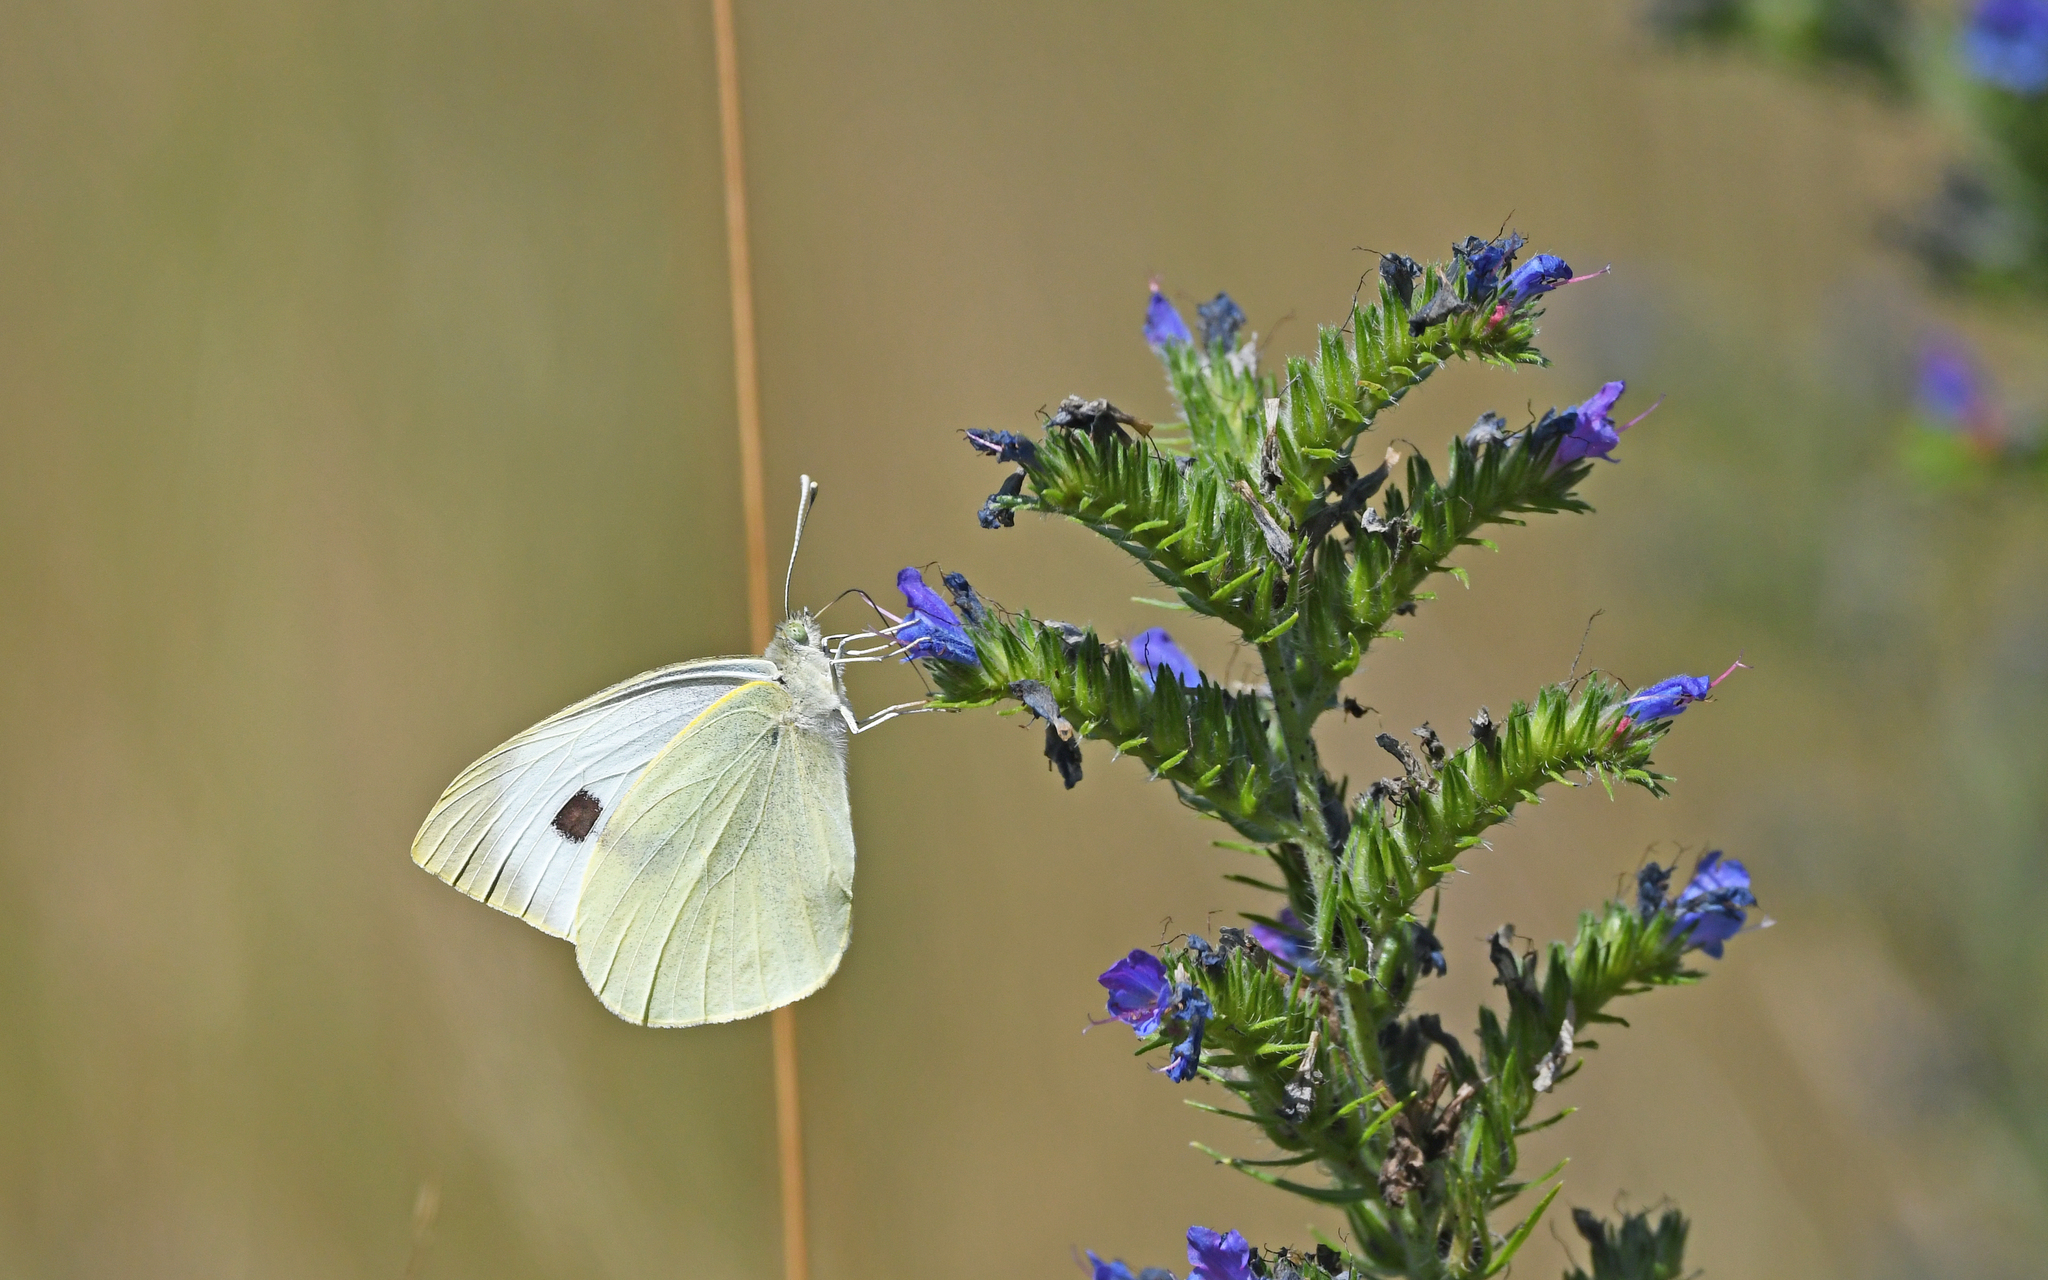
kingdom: Animalia
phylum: Arthropoda
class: Insecta
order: Lepidoptera
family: Pieridae
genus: Pieris
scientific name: Pieris brassicae
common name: Large white
